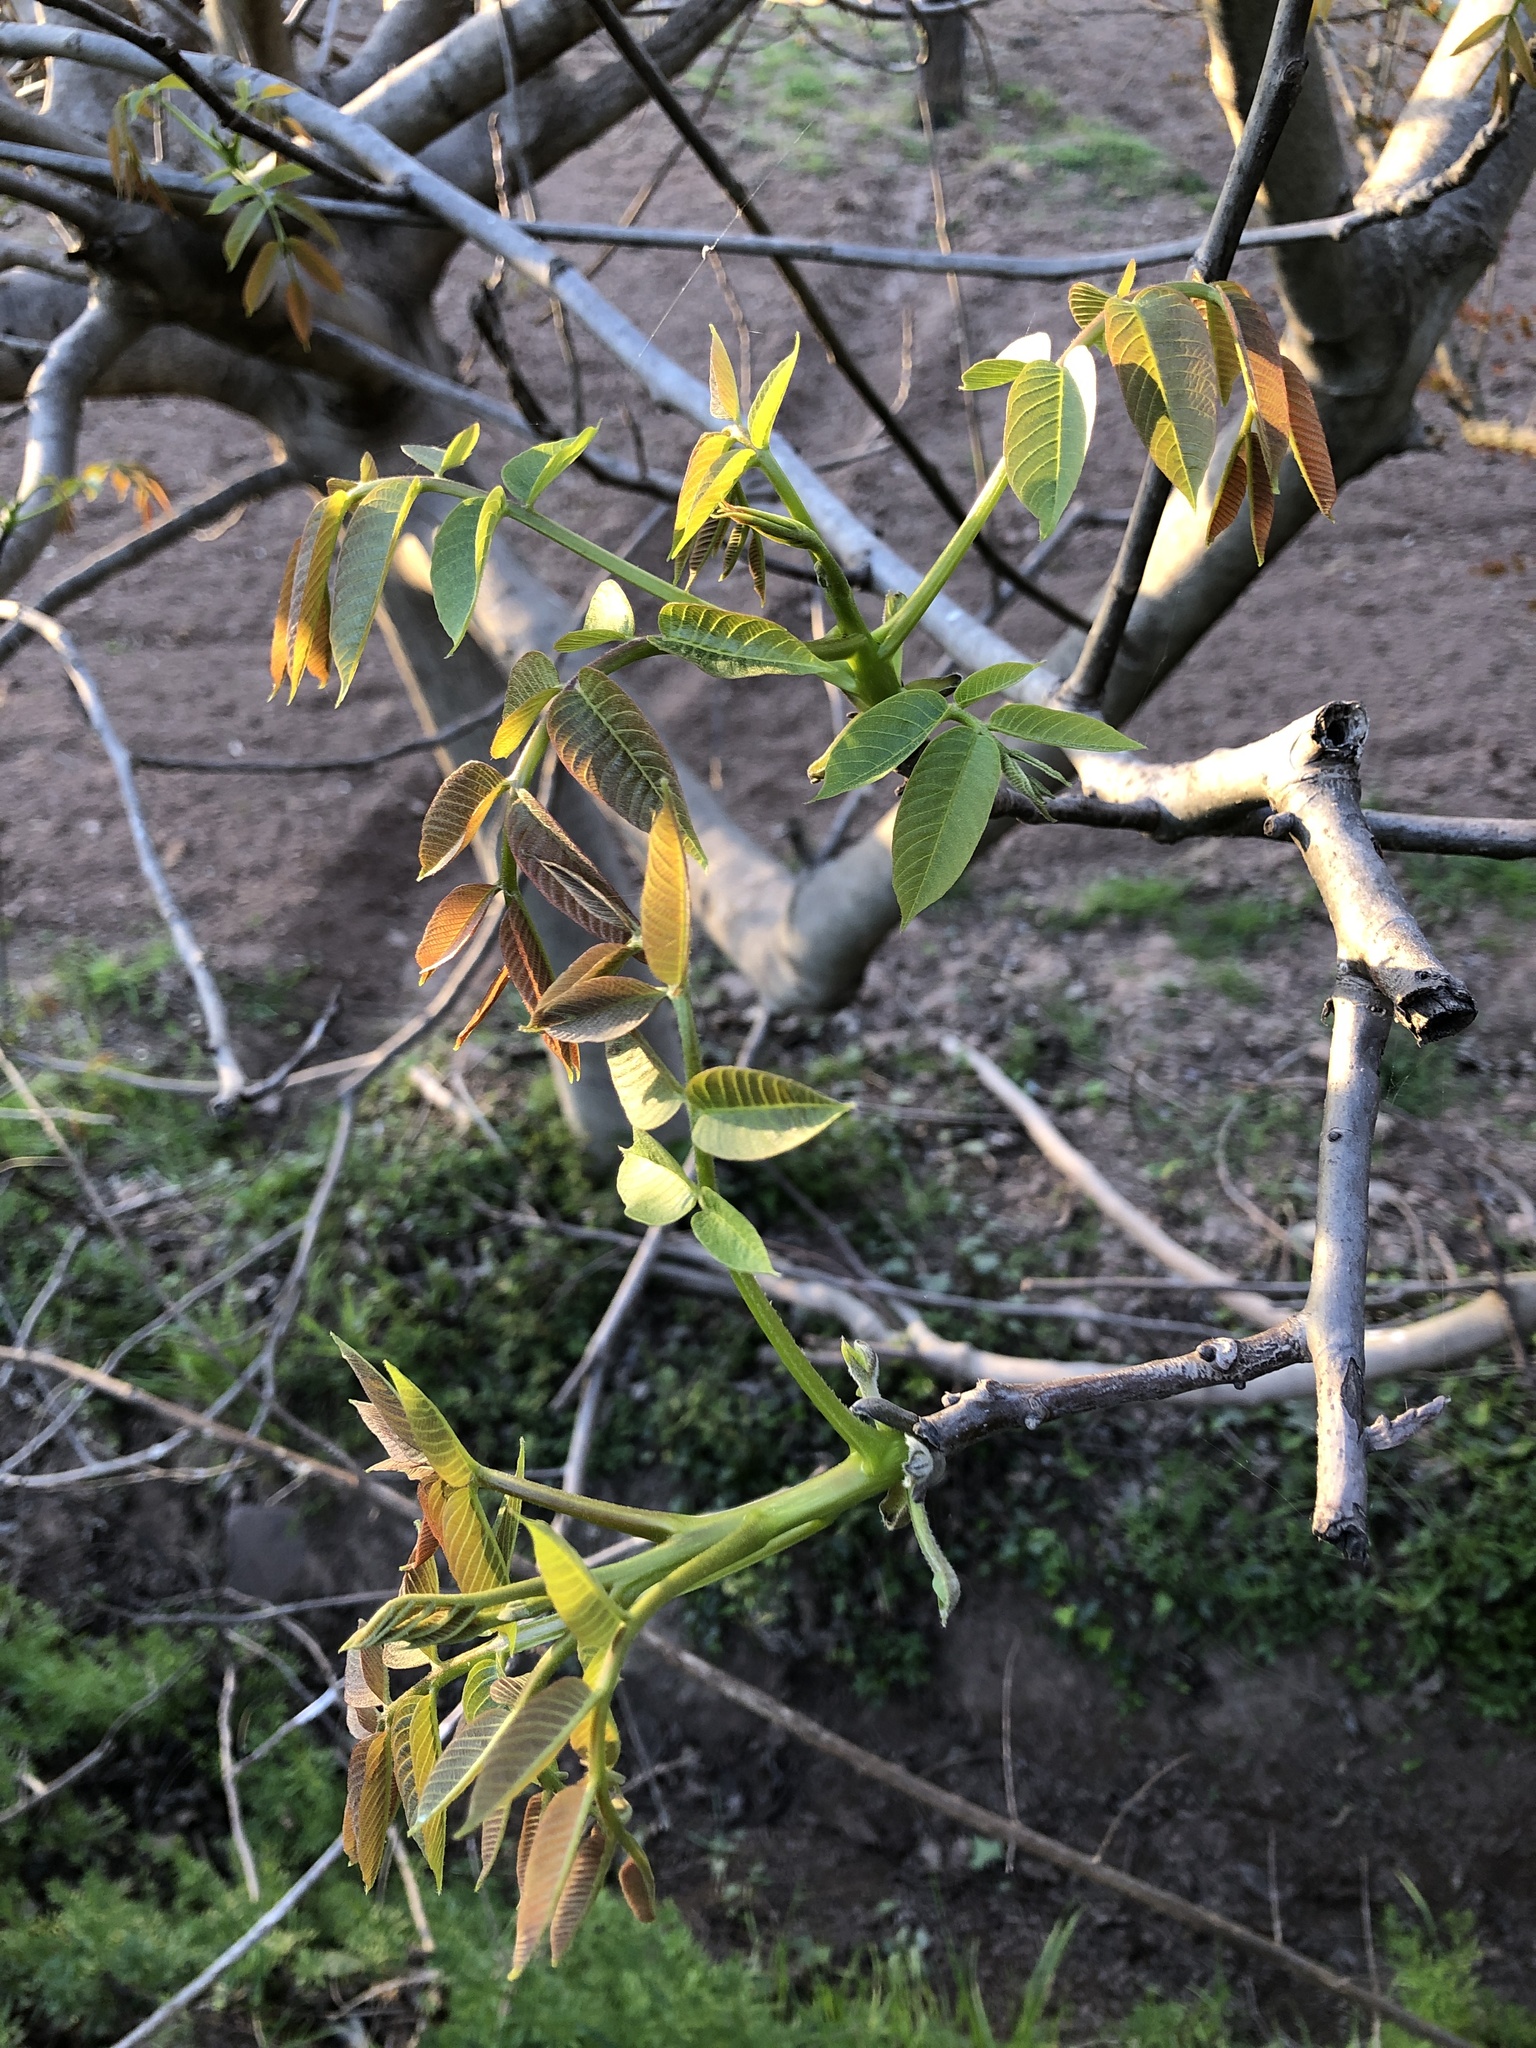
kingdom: Plantae
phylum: Tracheophyta
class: Magnoliopsida
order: Fagales
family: Juglandaceae
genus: Juglans
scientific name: Juglans regia
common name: Walnut
